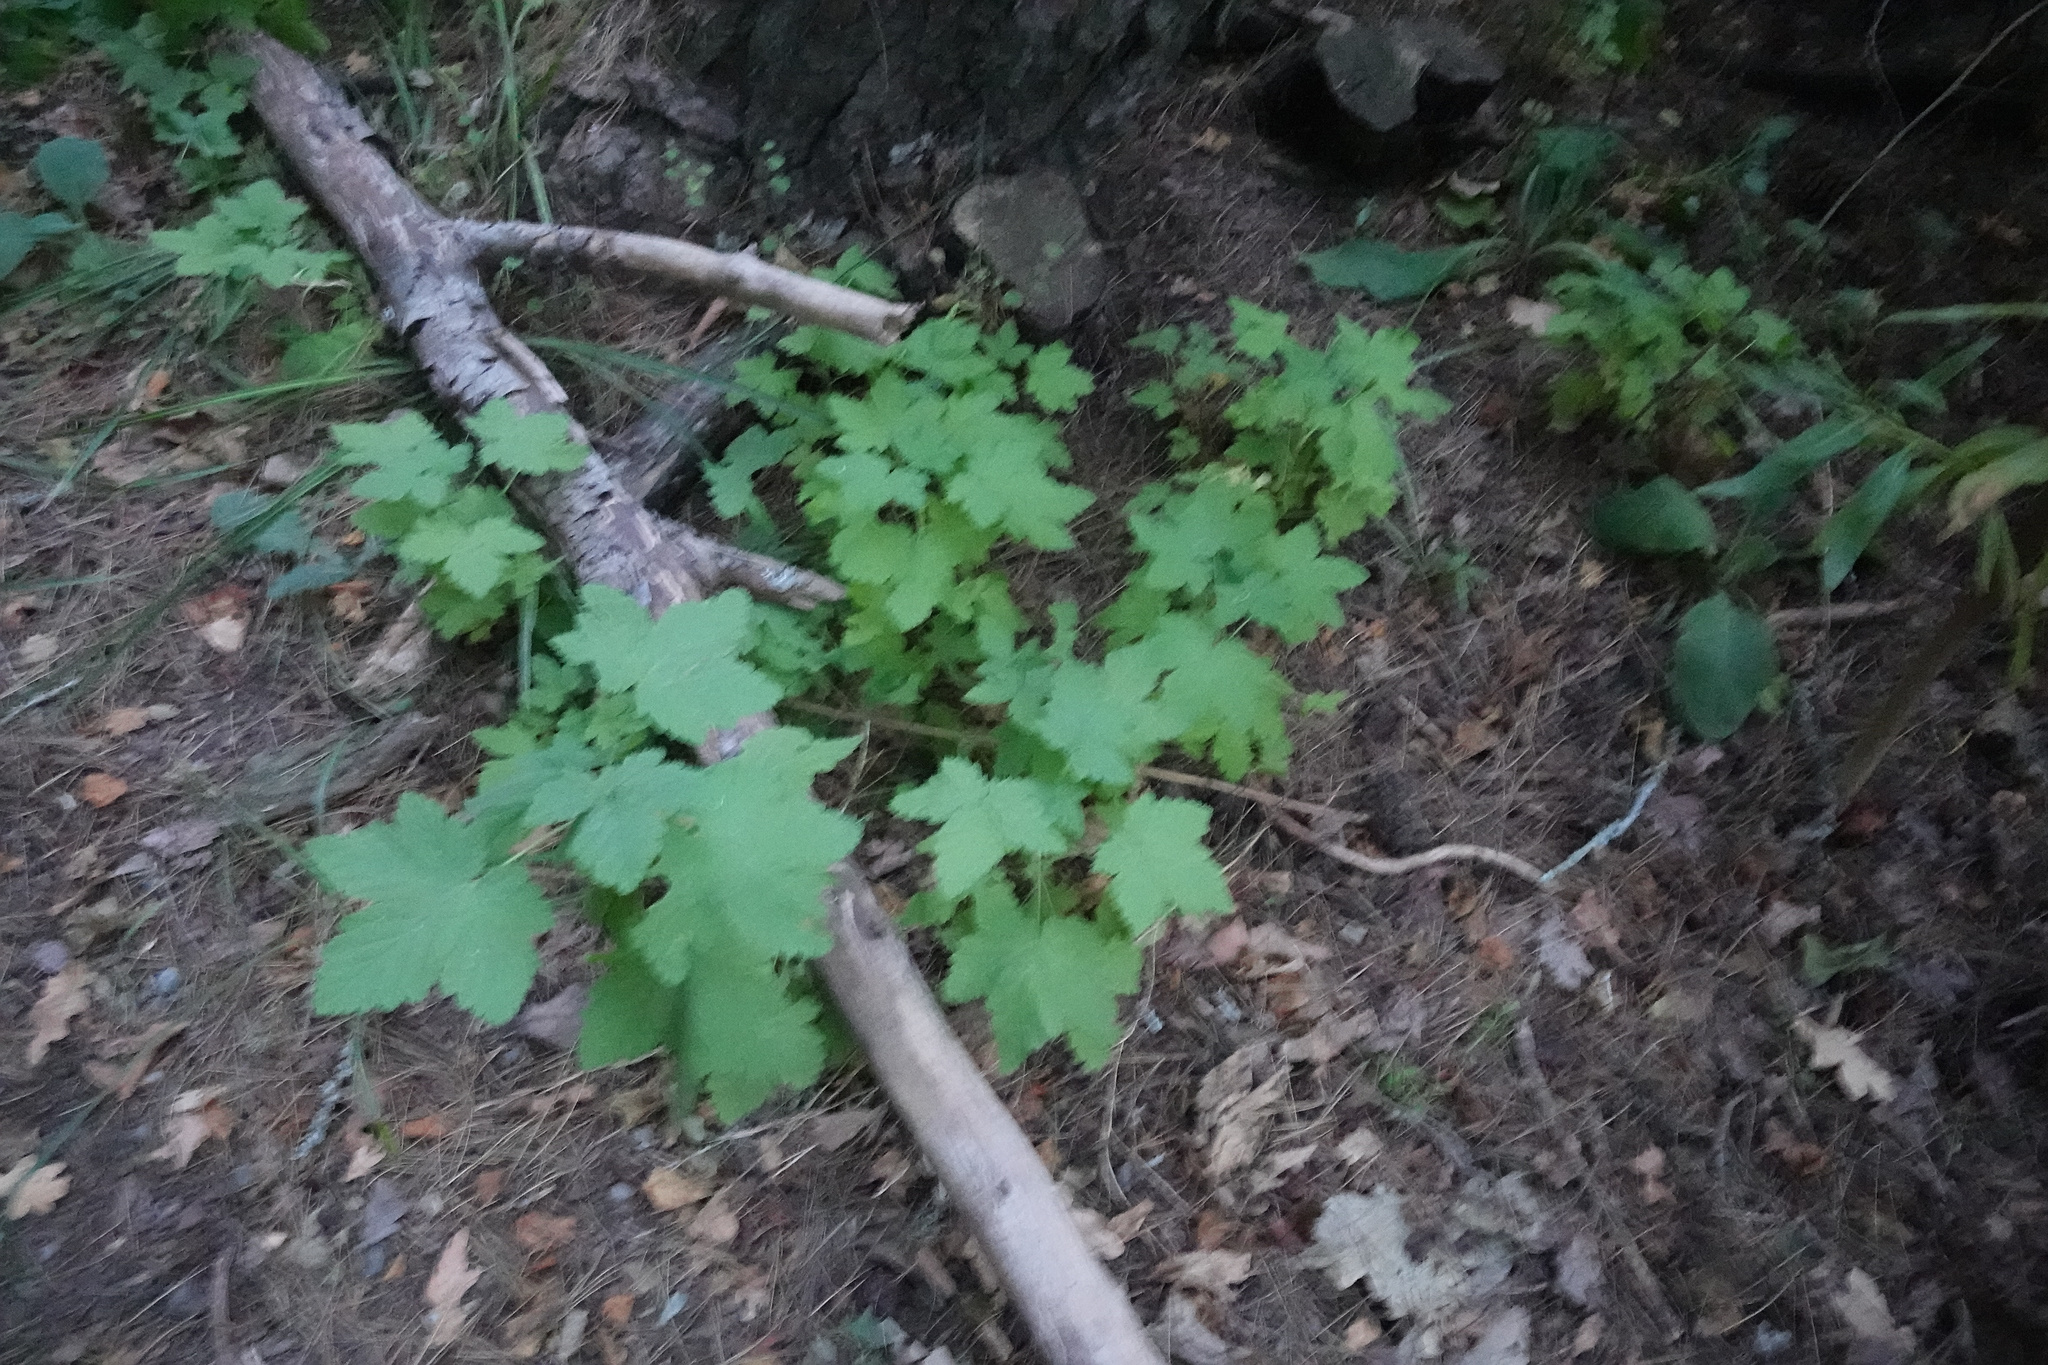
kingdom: Plantae
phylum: Tracheophyta
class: Magnoliopsida
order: Saxifragales
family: Grossulariaceae
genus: Ribes
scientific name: Ribes
